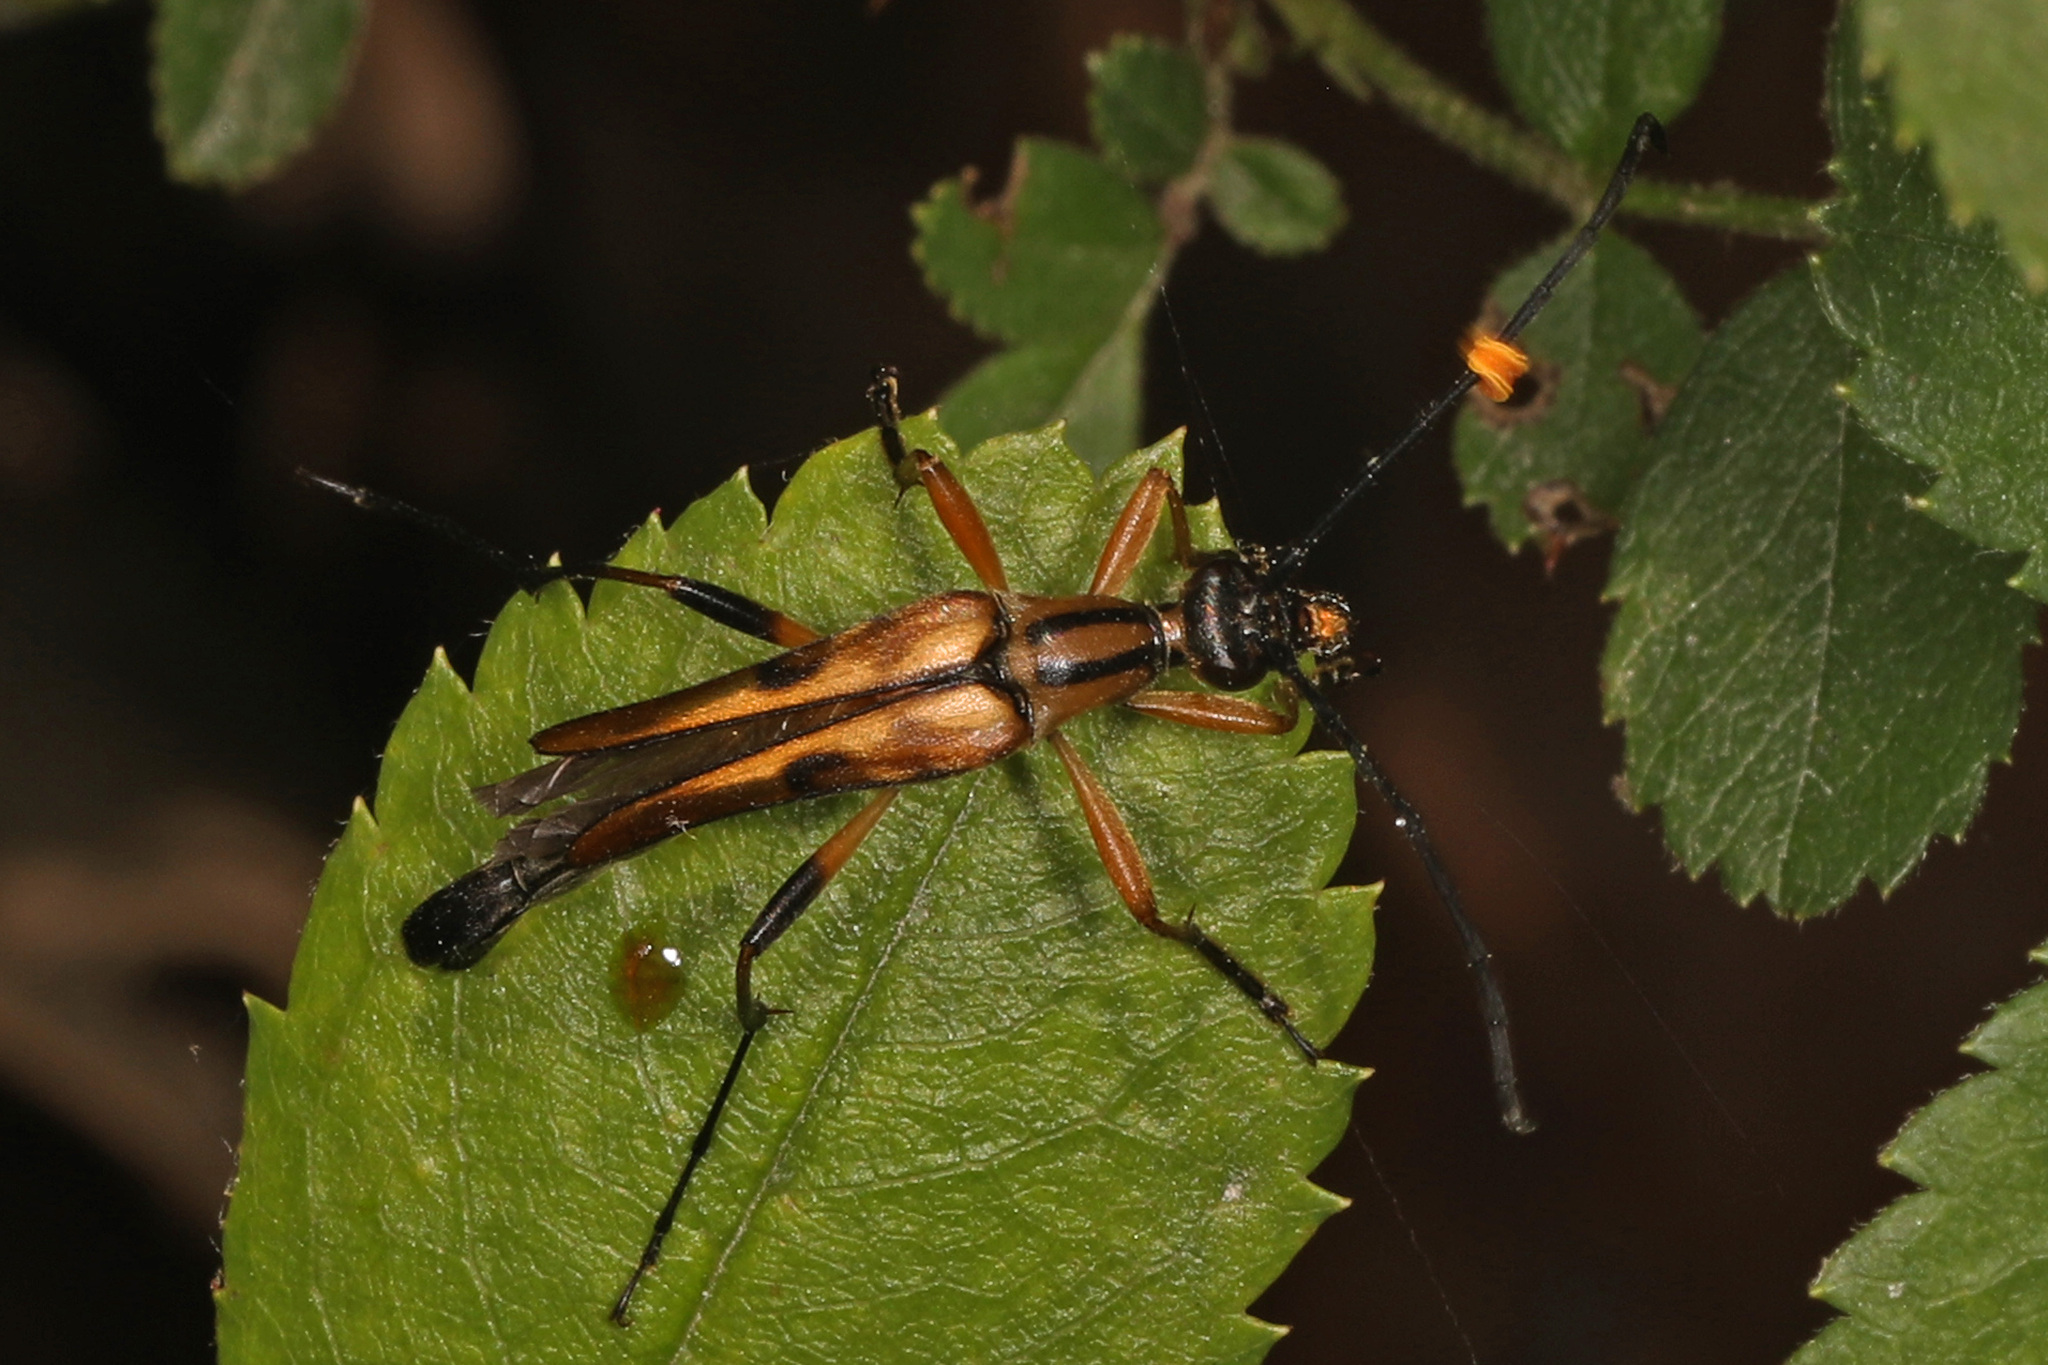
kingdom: Animalia
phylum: Arthropoda
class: Insecta
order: Coleoptera
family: Cerambycidae
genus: Strangalia
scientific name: Strangalia famelica
